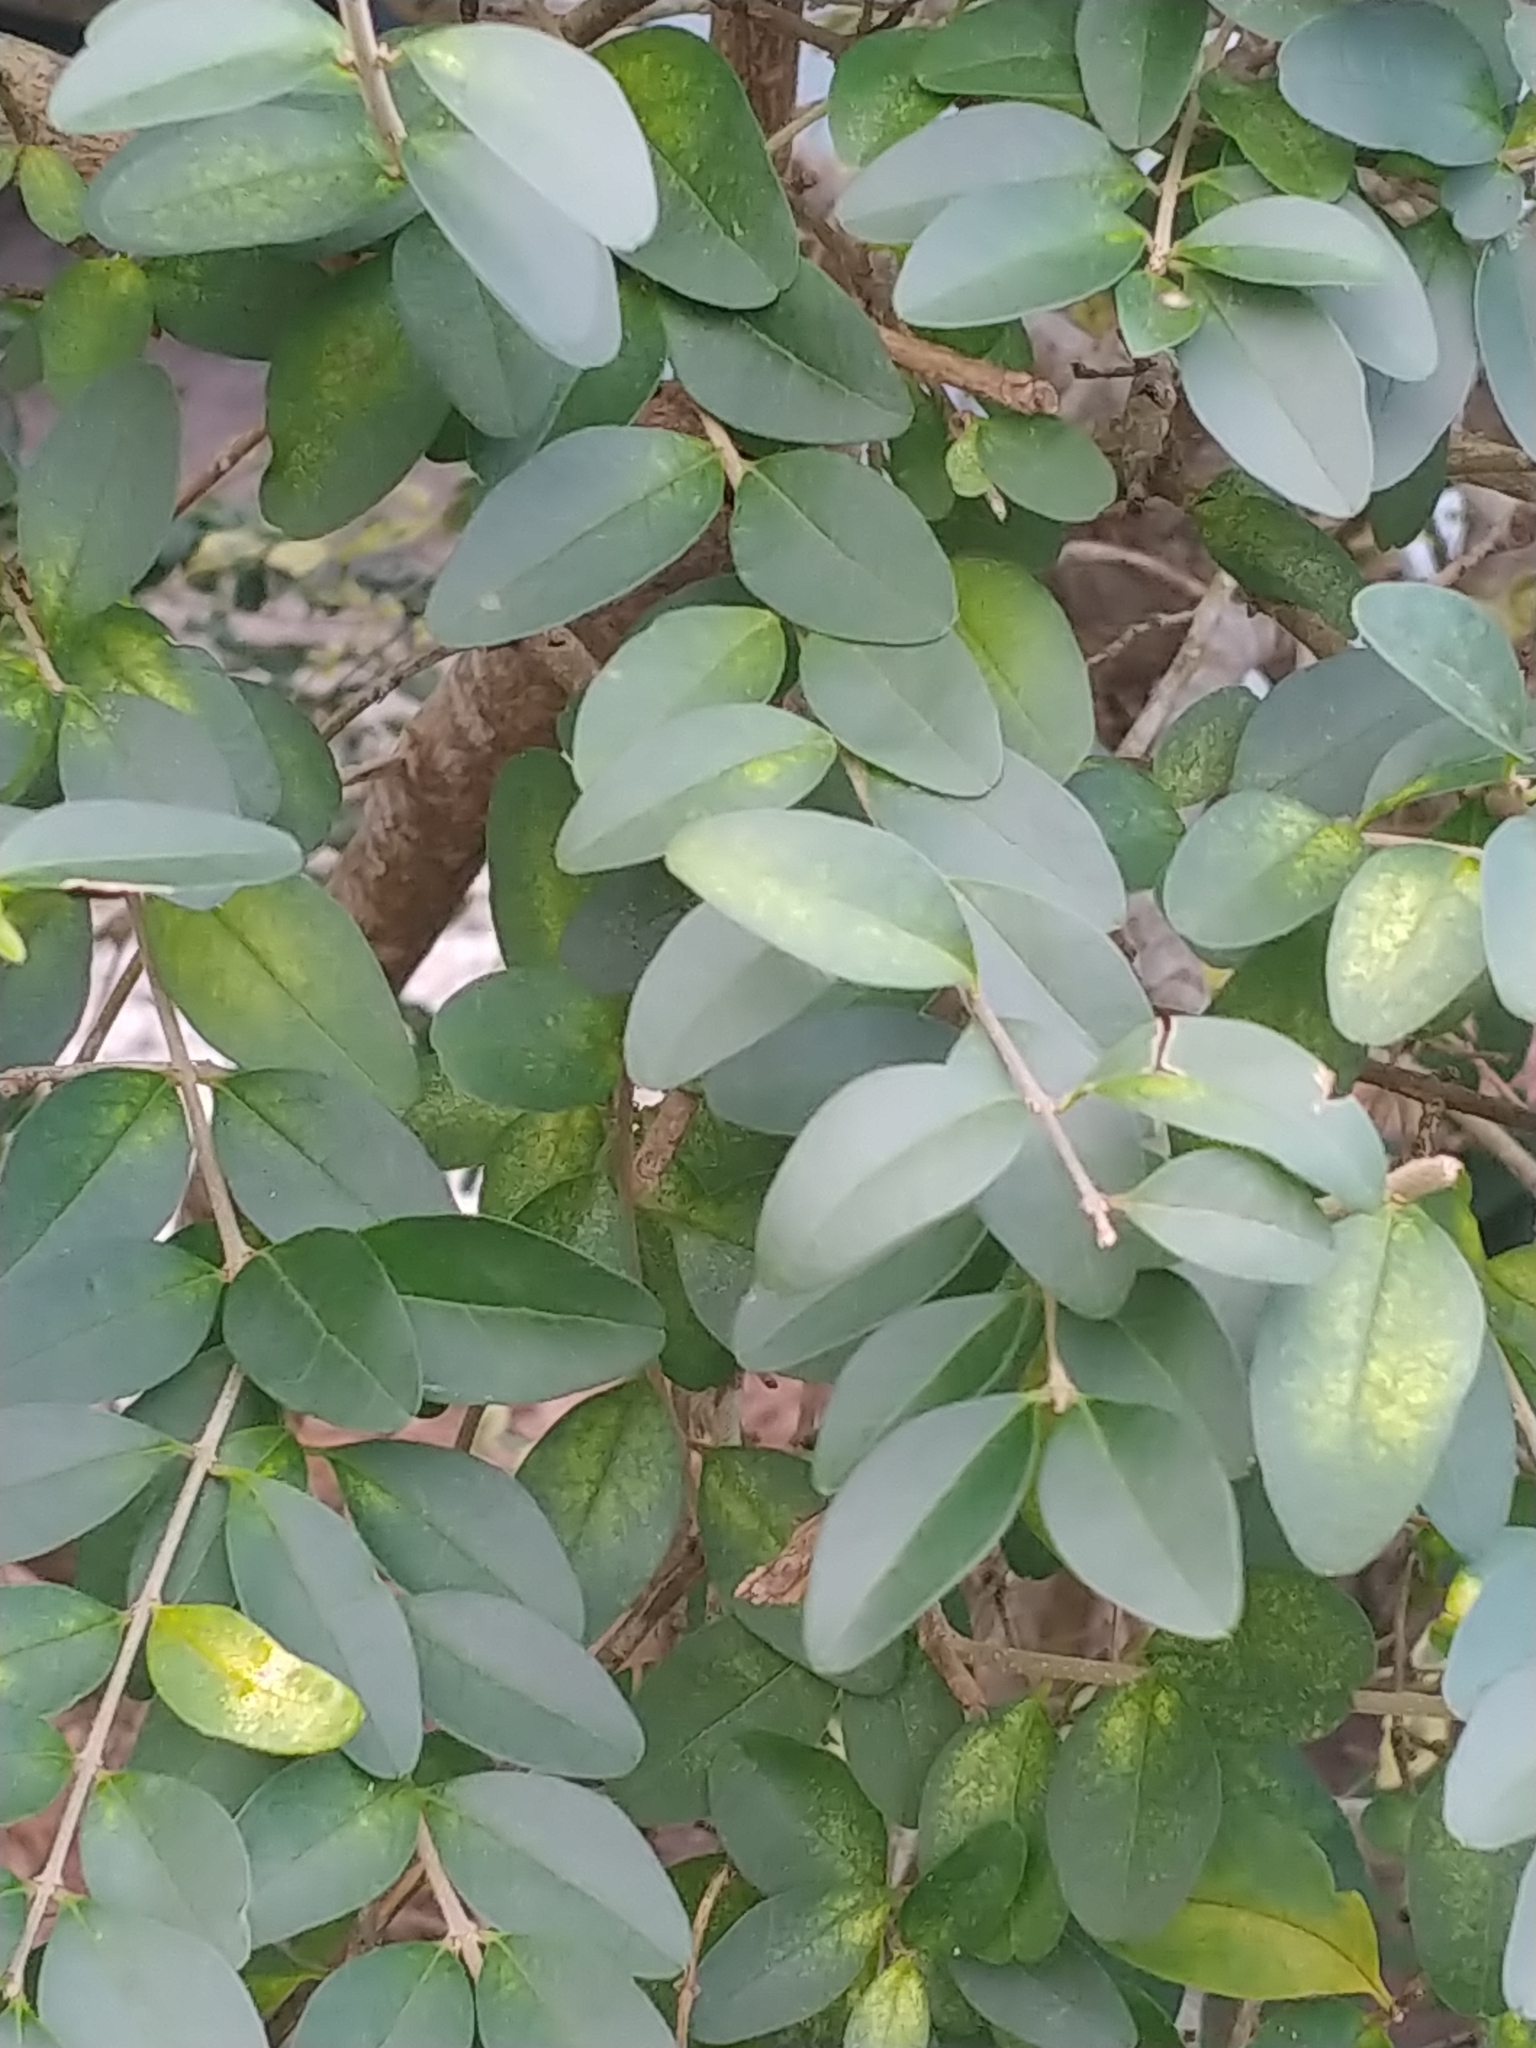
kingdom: Plantae
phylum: Tracheophyta
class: Magnoliopsida
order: Lamiales
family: Oleaceae
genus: Ligustrum
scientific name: Ligustrum sinense
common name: Chinese privet
